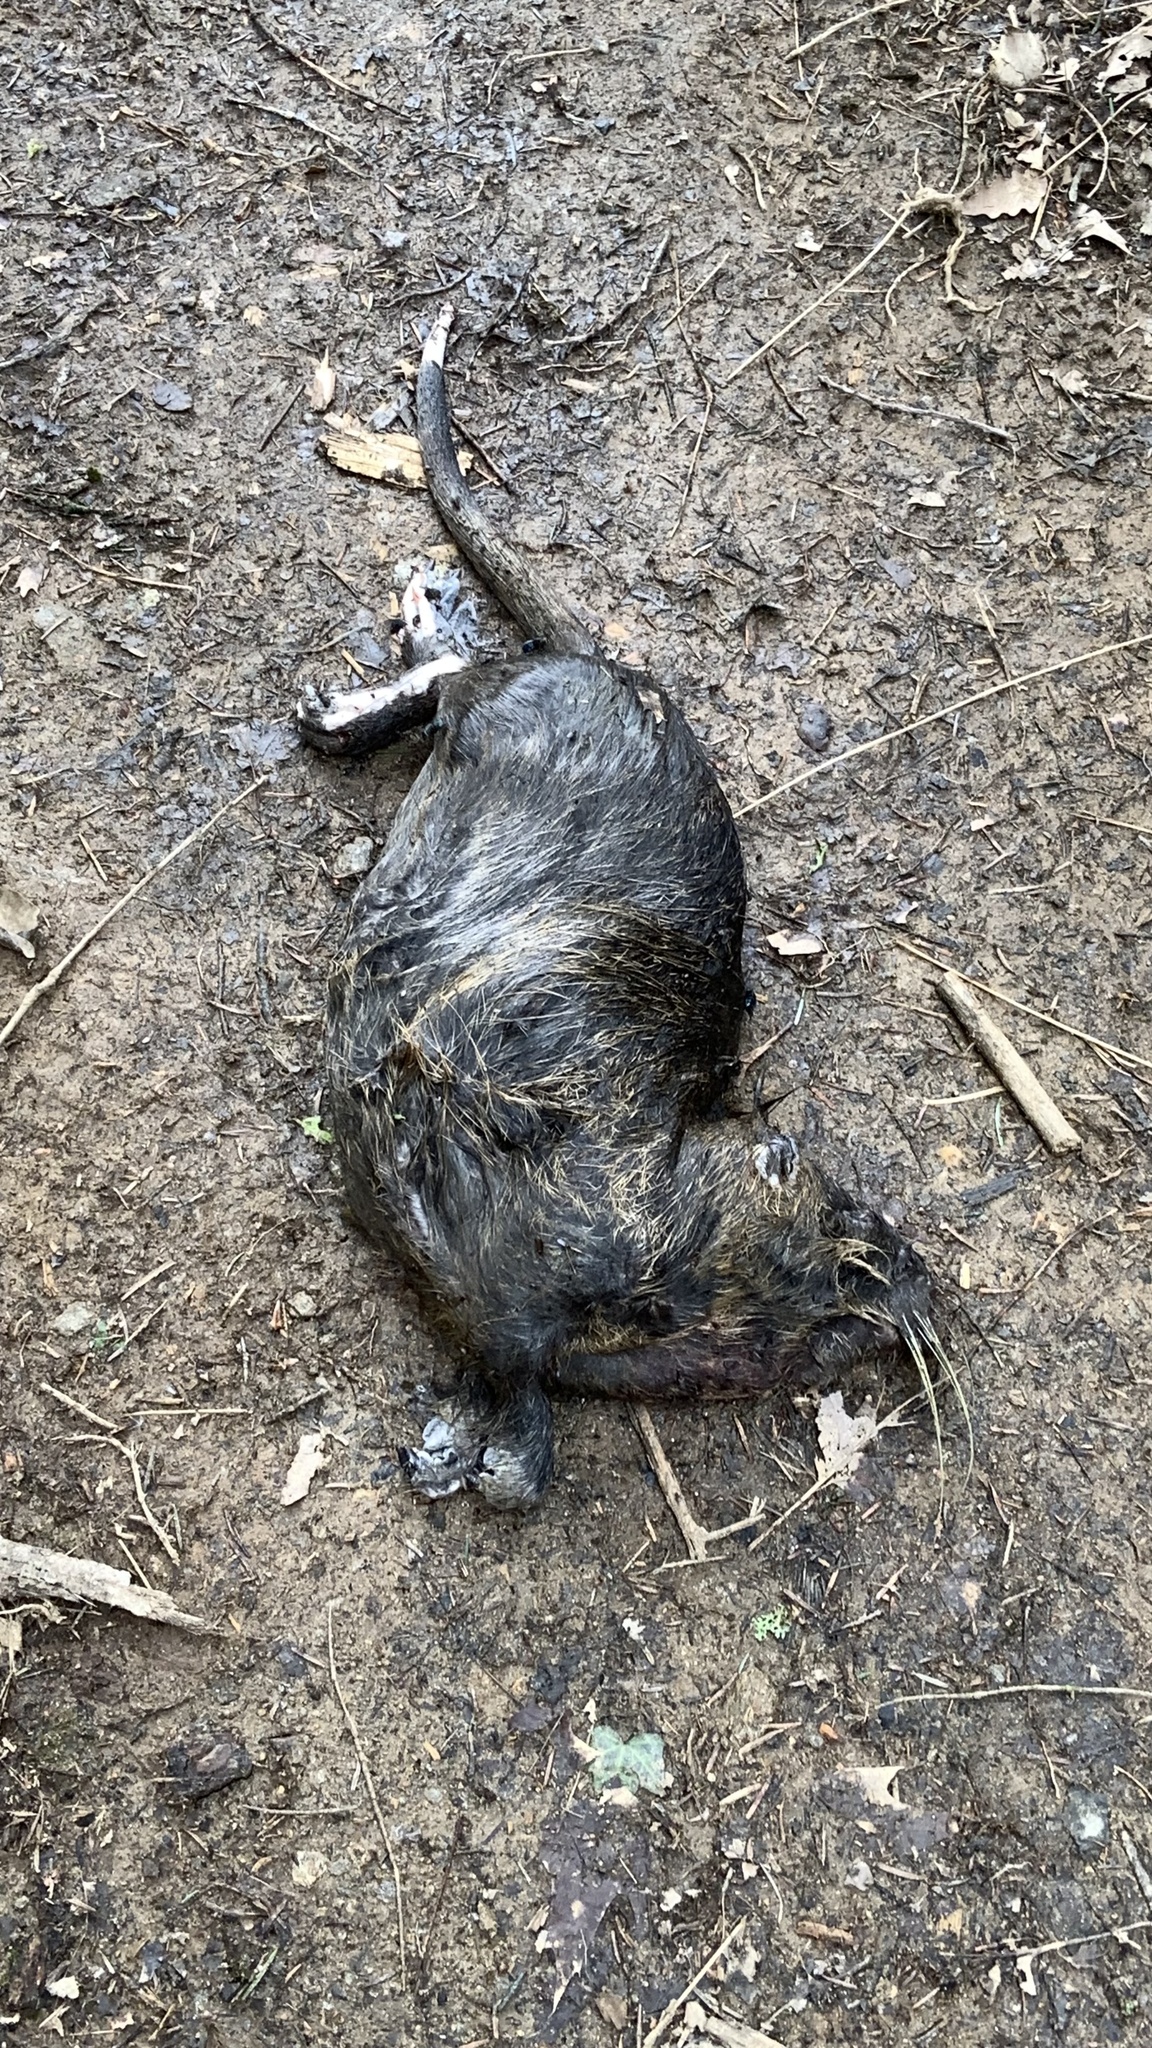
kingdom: Animalia
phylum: Chordata
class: Mammalia
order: Rodentia
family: Myocastoridae
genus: Myocastor
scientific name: Myocastor coypus
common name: Coypu
